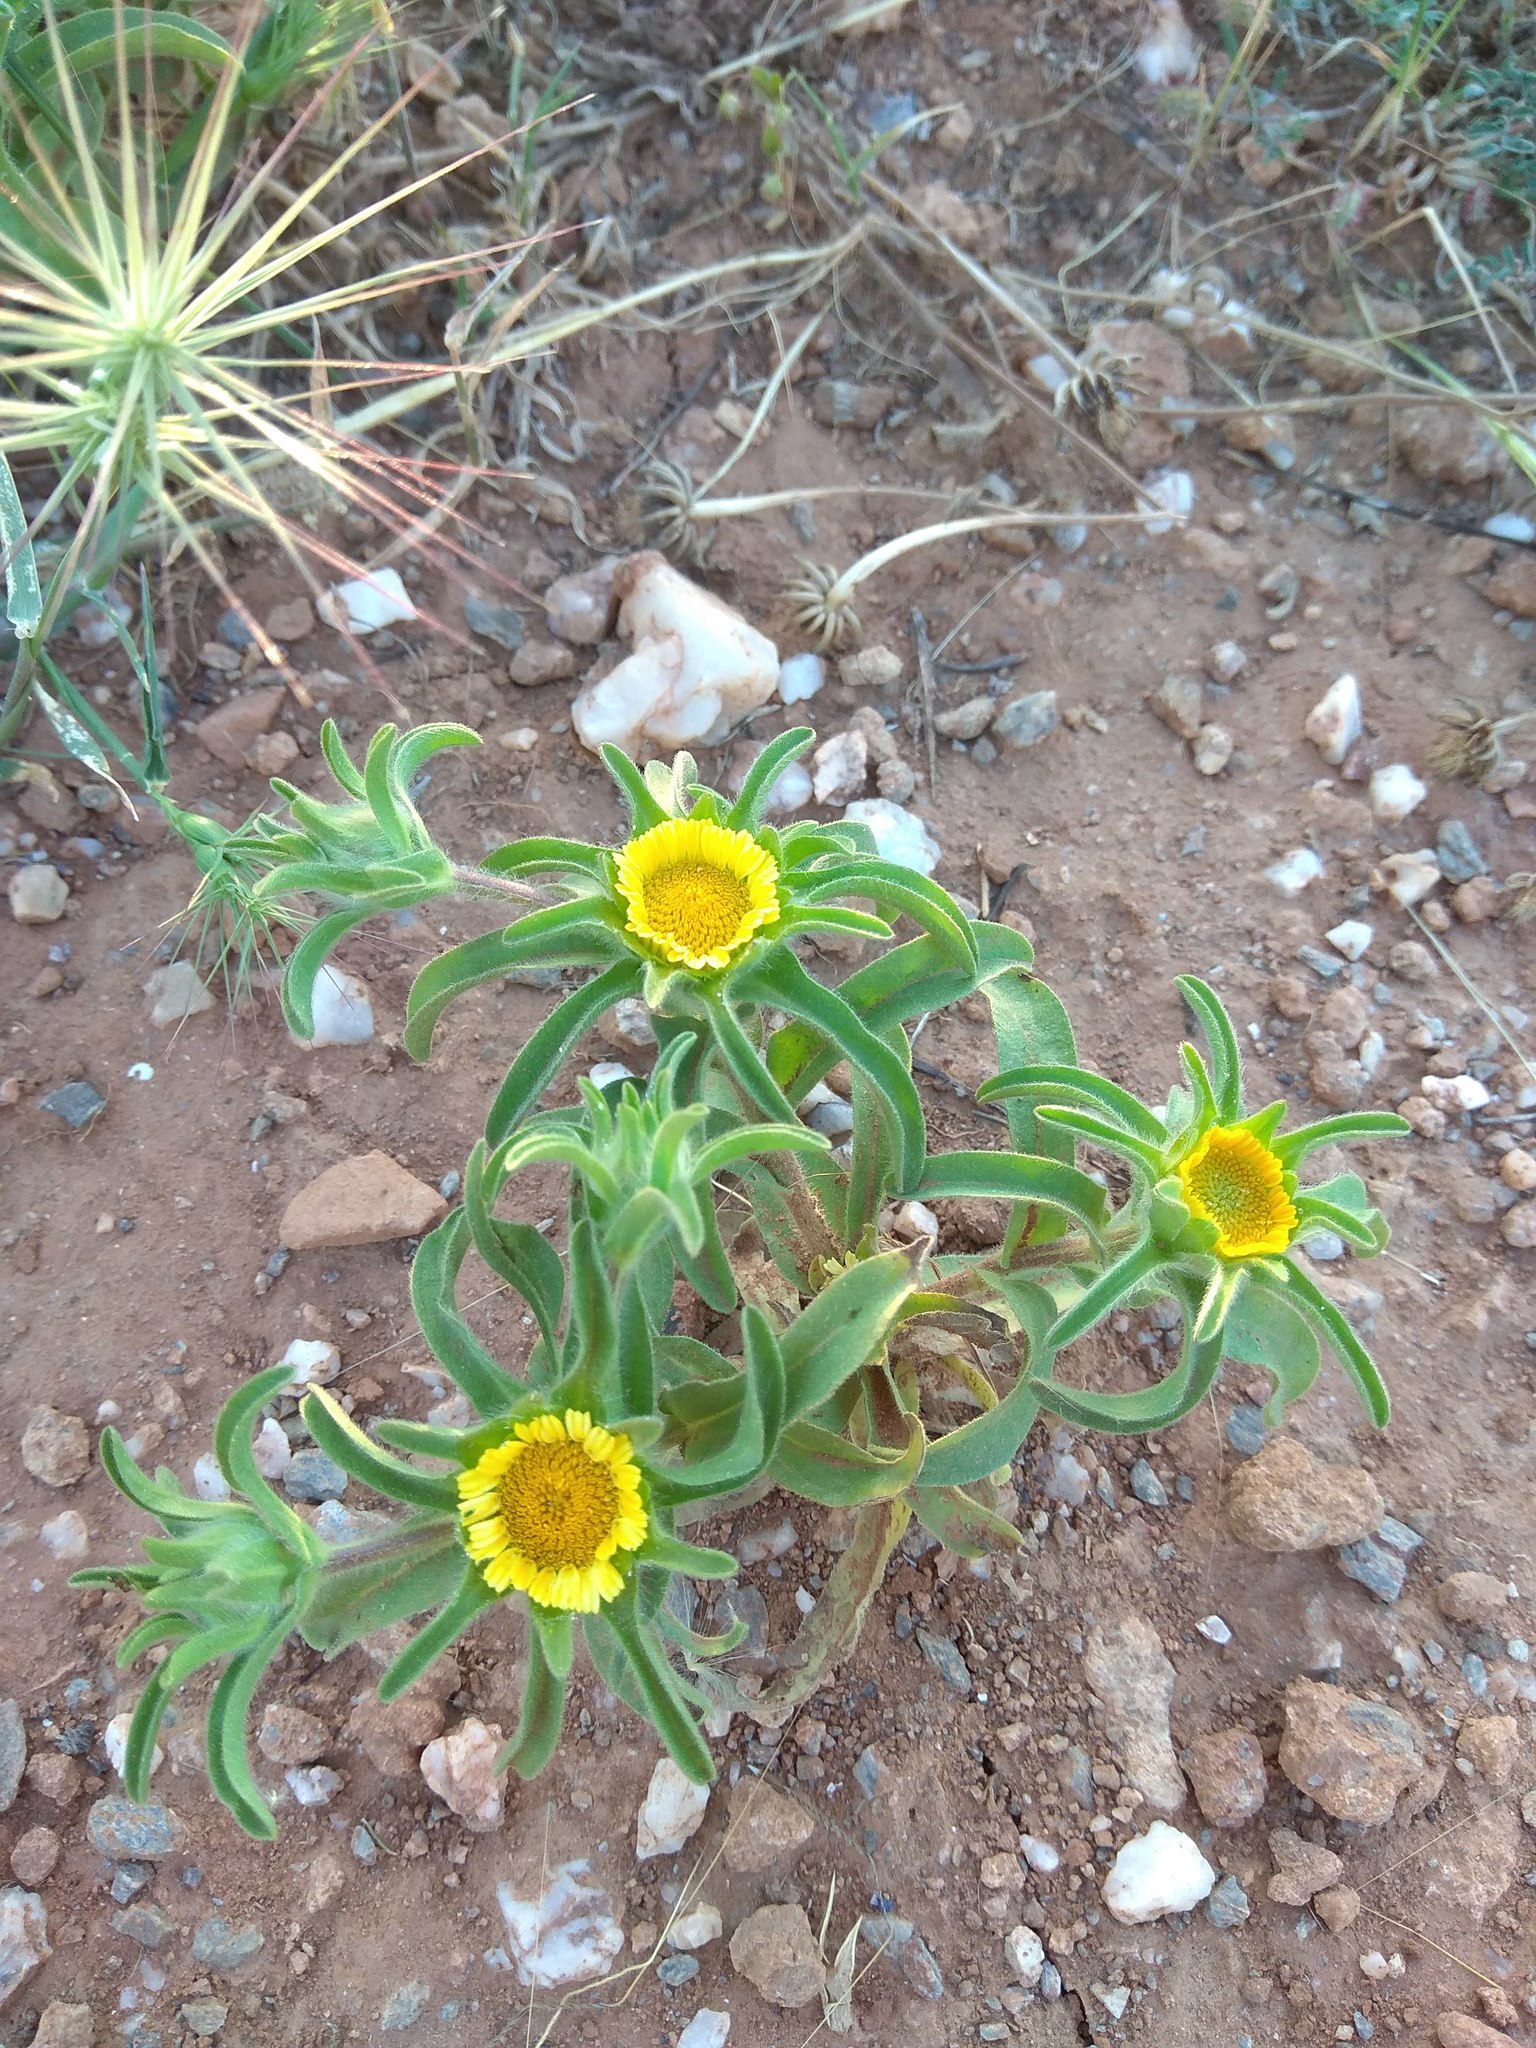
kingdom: Plantae
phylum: Tracheophyta
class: Magnoliopsida
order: Asterales
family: Asteraceae
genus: Asteriscus
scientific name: Asteriscus aquaticus
